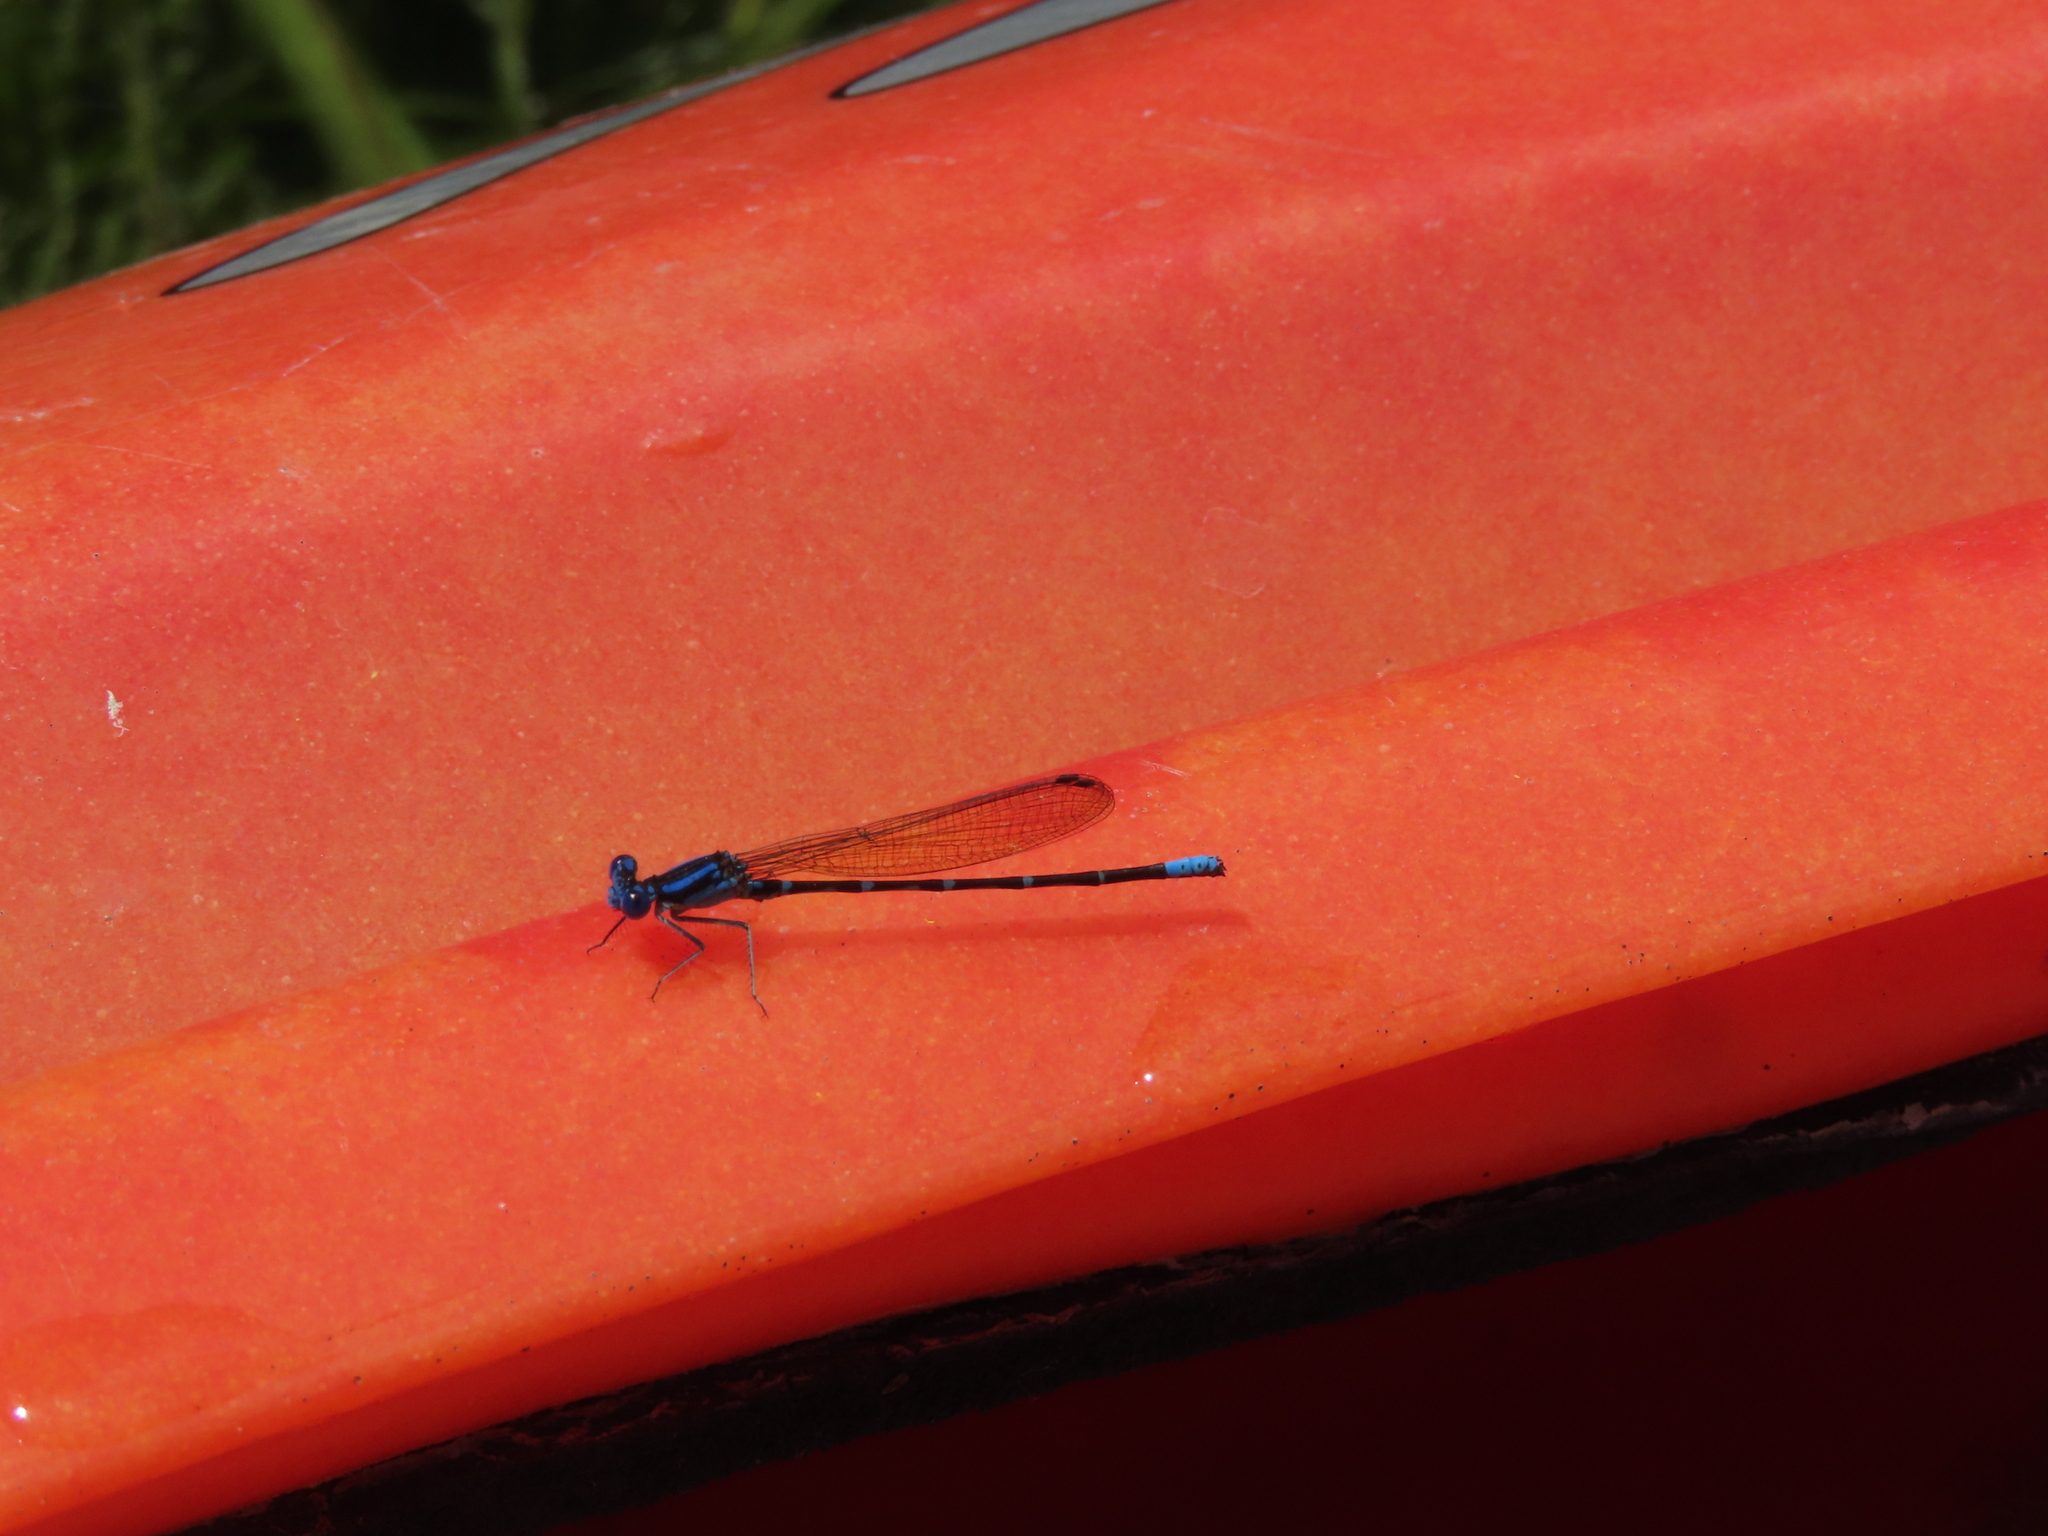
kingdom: Animalia
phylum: Arthropoda
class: Insecta
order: Odonata
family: Coenagrionidae
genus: Argia
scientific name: Argia sedula
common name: Blue-ringed dancer
